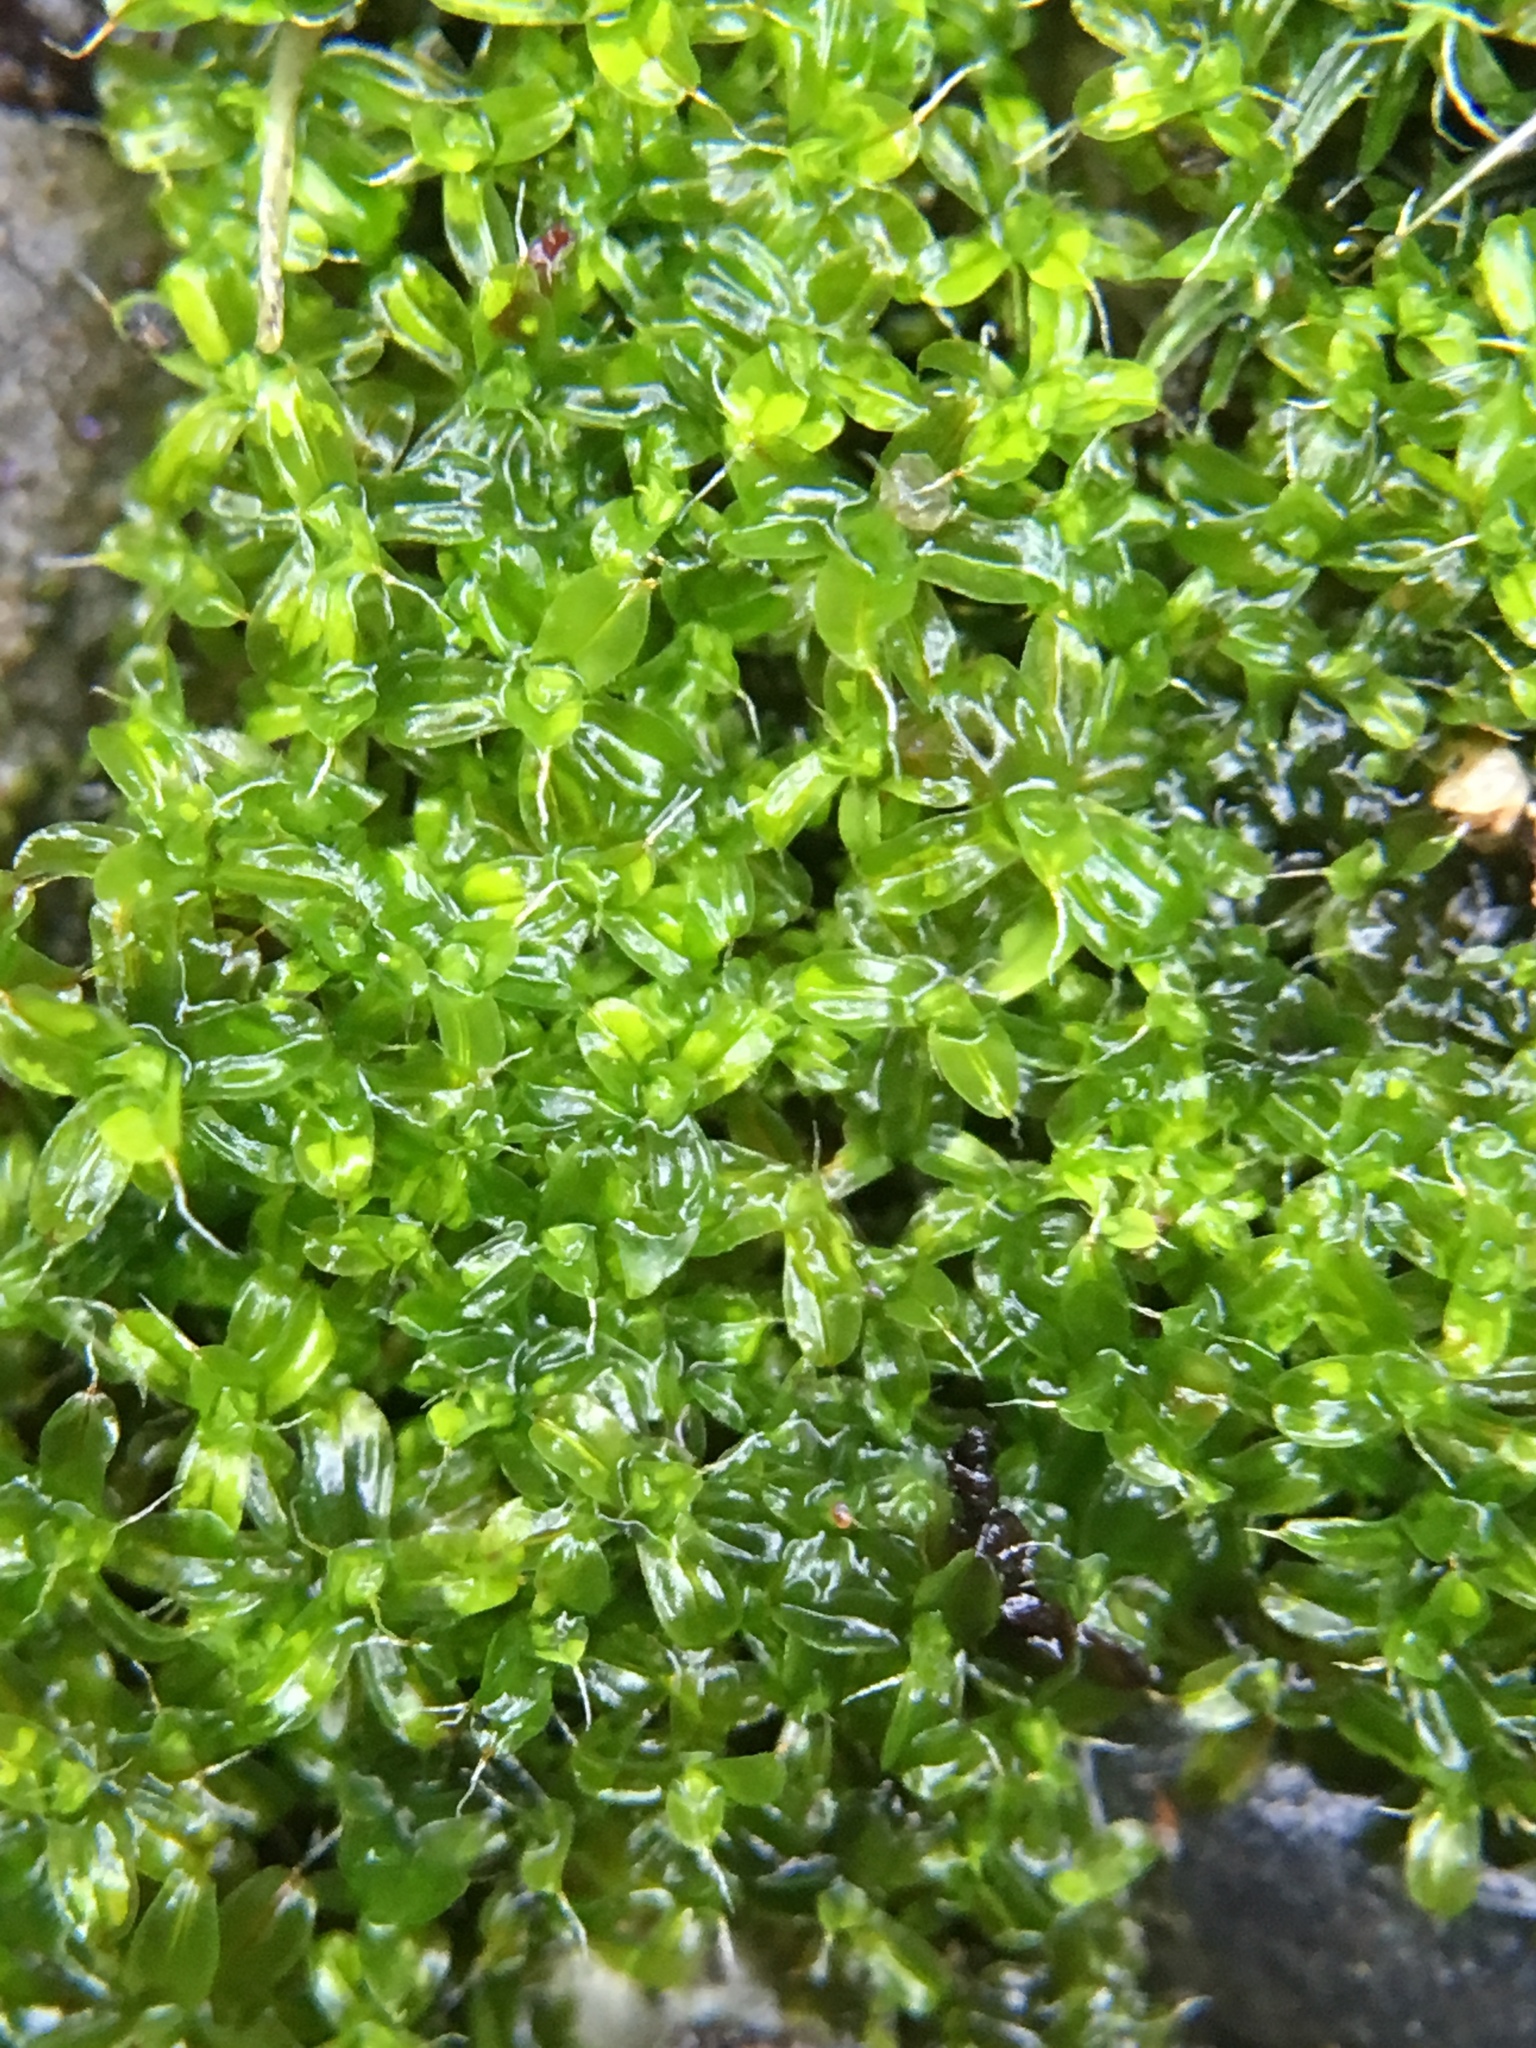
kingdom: Plantae
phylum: Bryophyta
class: Bryopsida
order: Pottiales
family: Pottiaceae
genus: Syntrichia
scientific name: Syntrichia papillosa
